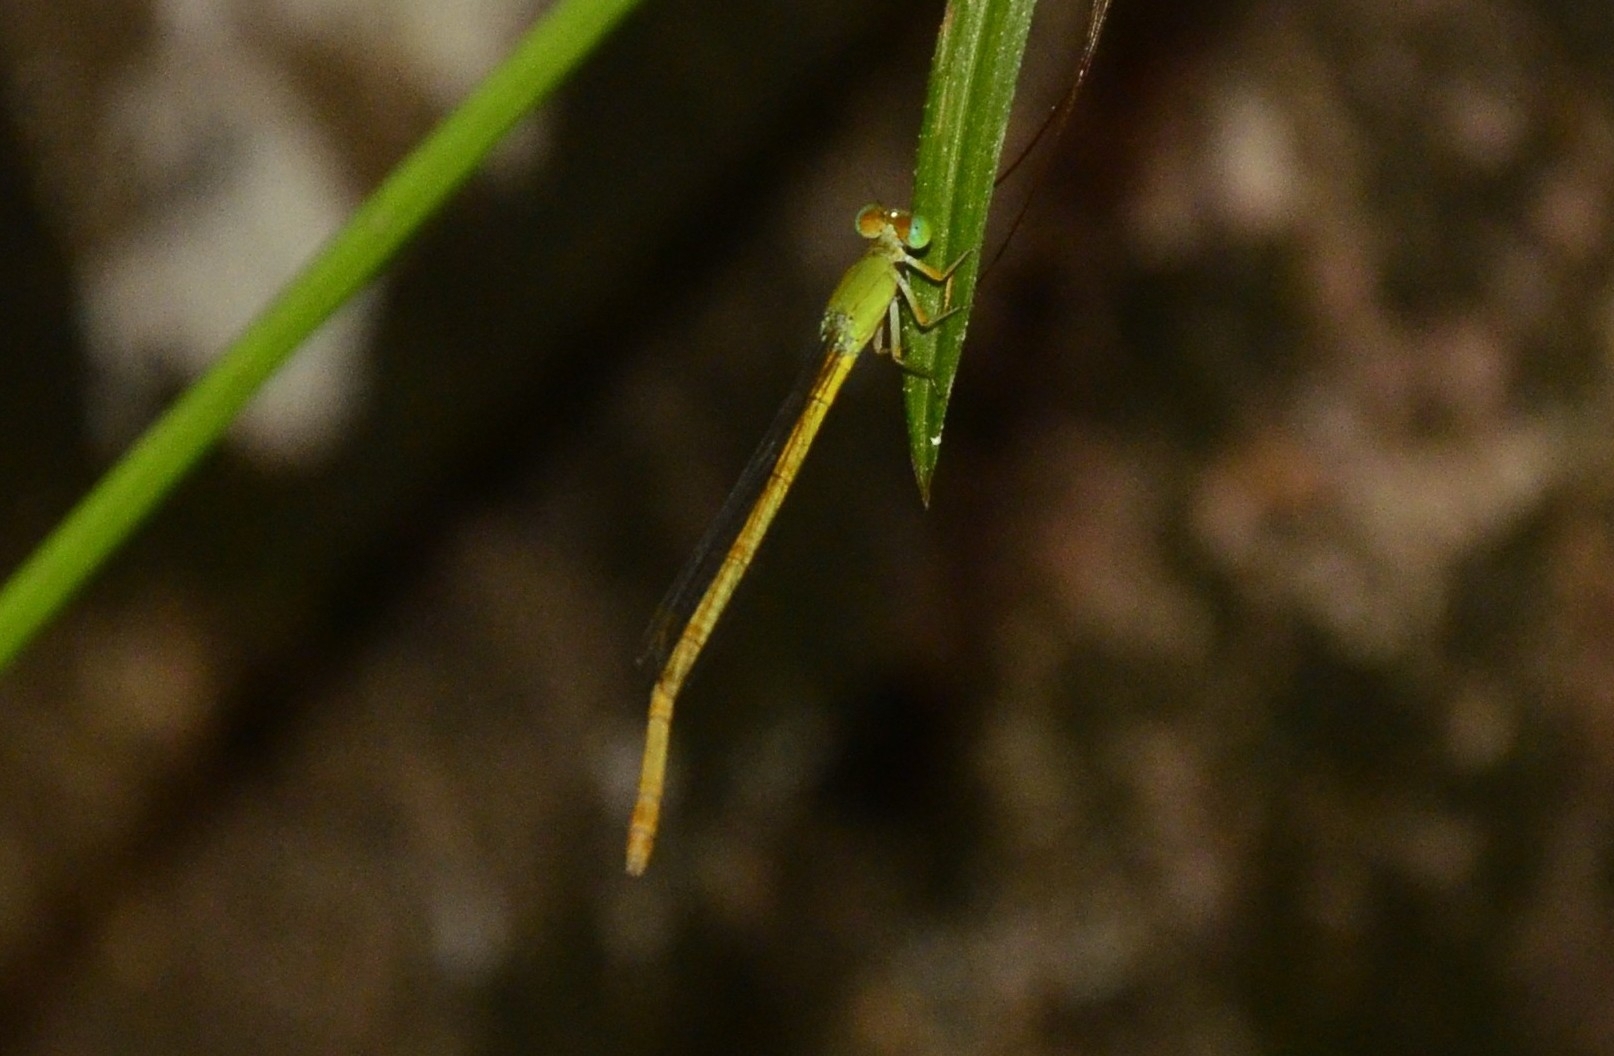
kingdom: Animalia
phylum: Arthropoda
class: Insecta
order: Odonata
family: Coenagrionidae
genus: Ceriagrion
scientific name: Ceriagrion coromandelianum
